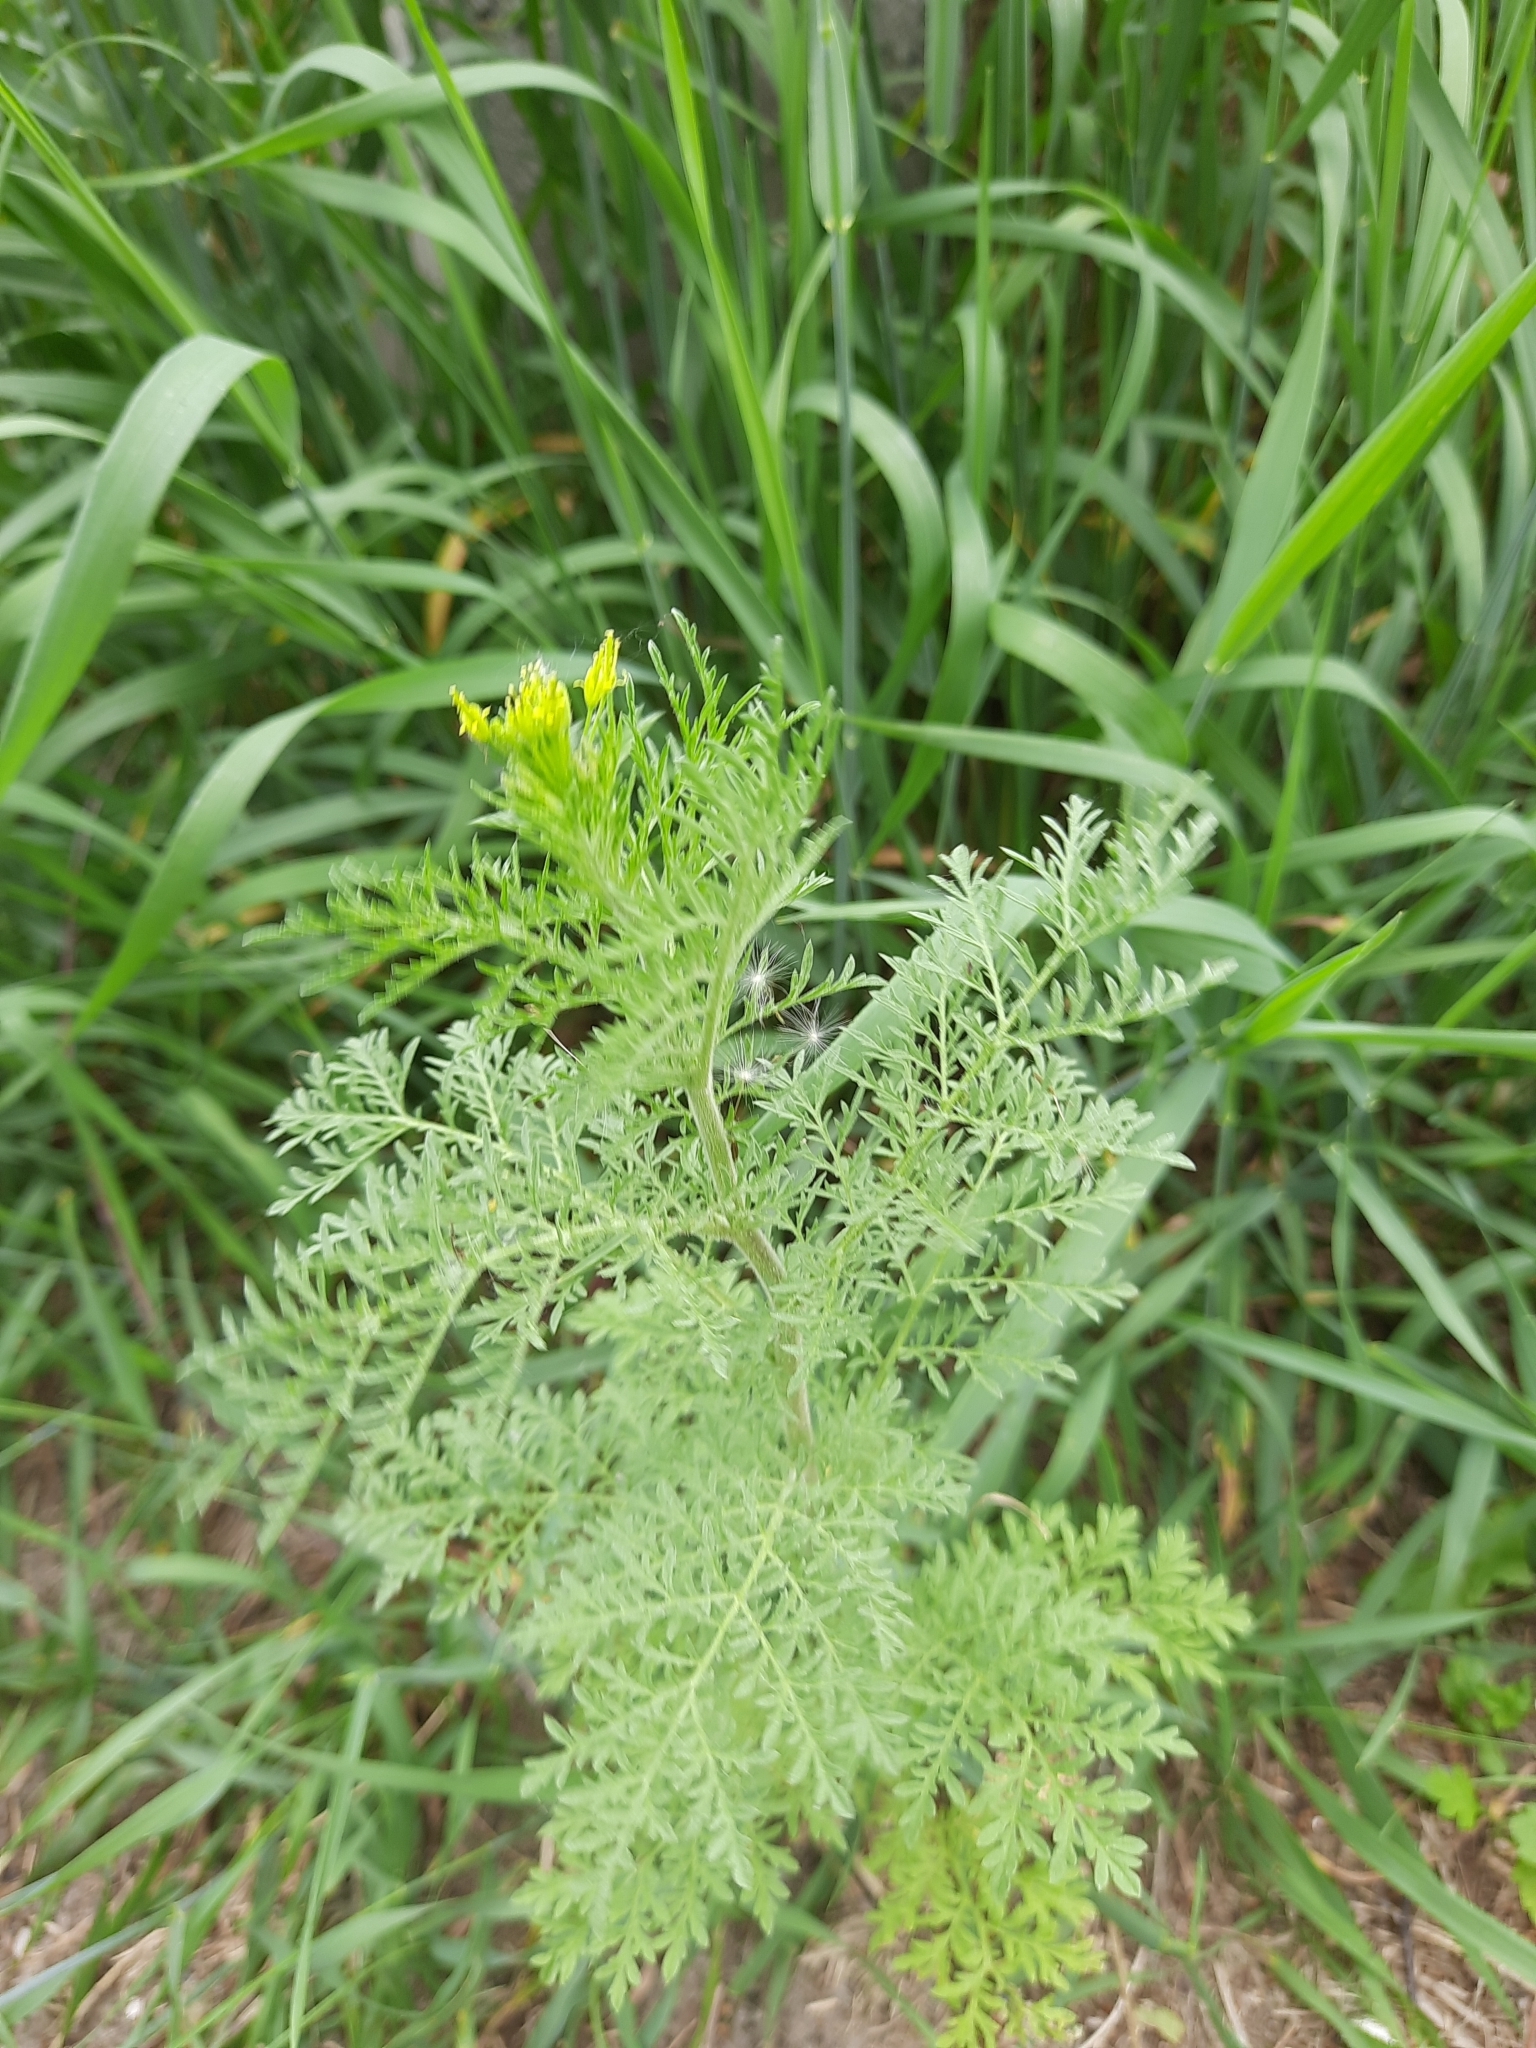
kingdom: Plantae
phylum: Tracheophyta
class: Magnoliopsida
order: Brassicales
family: Brassicaceae
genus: Descurainia
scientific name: Descurainia sophia
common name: Flixweed
